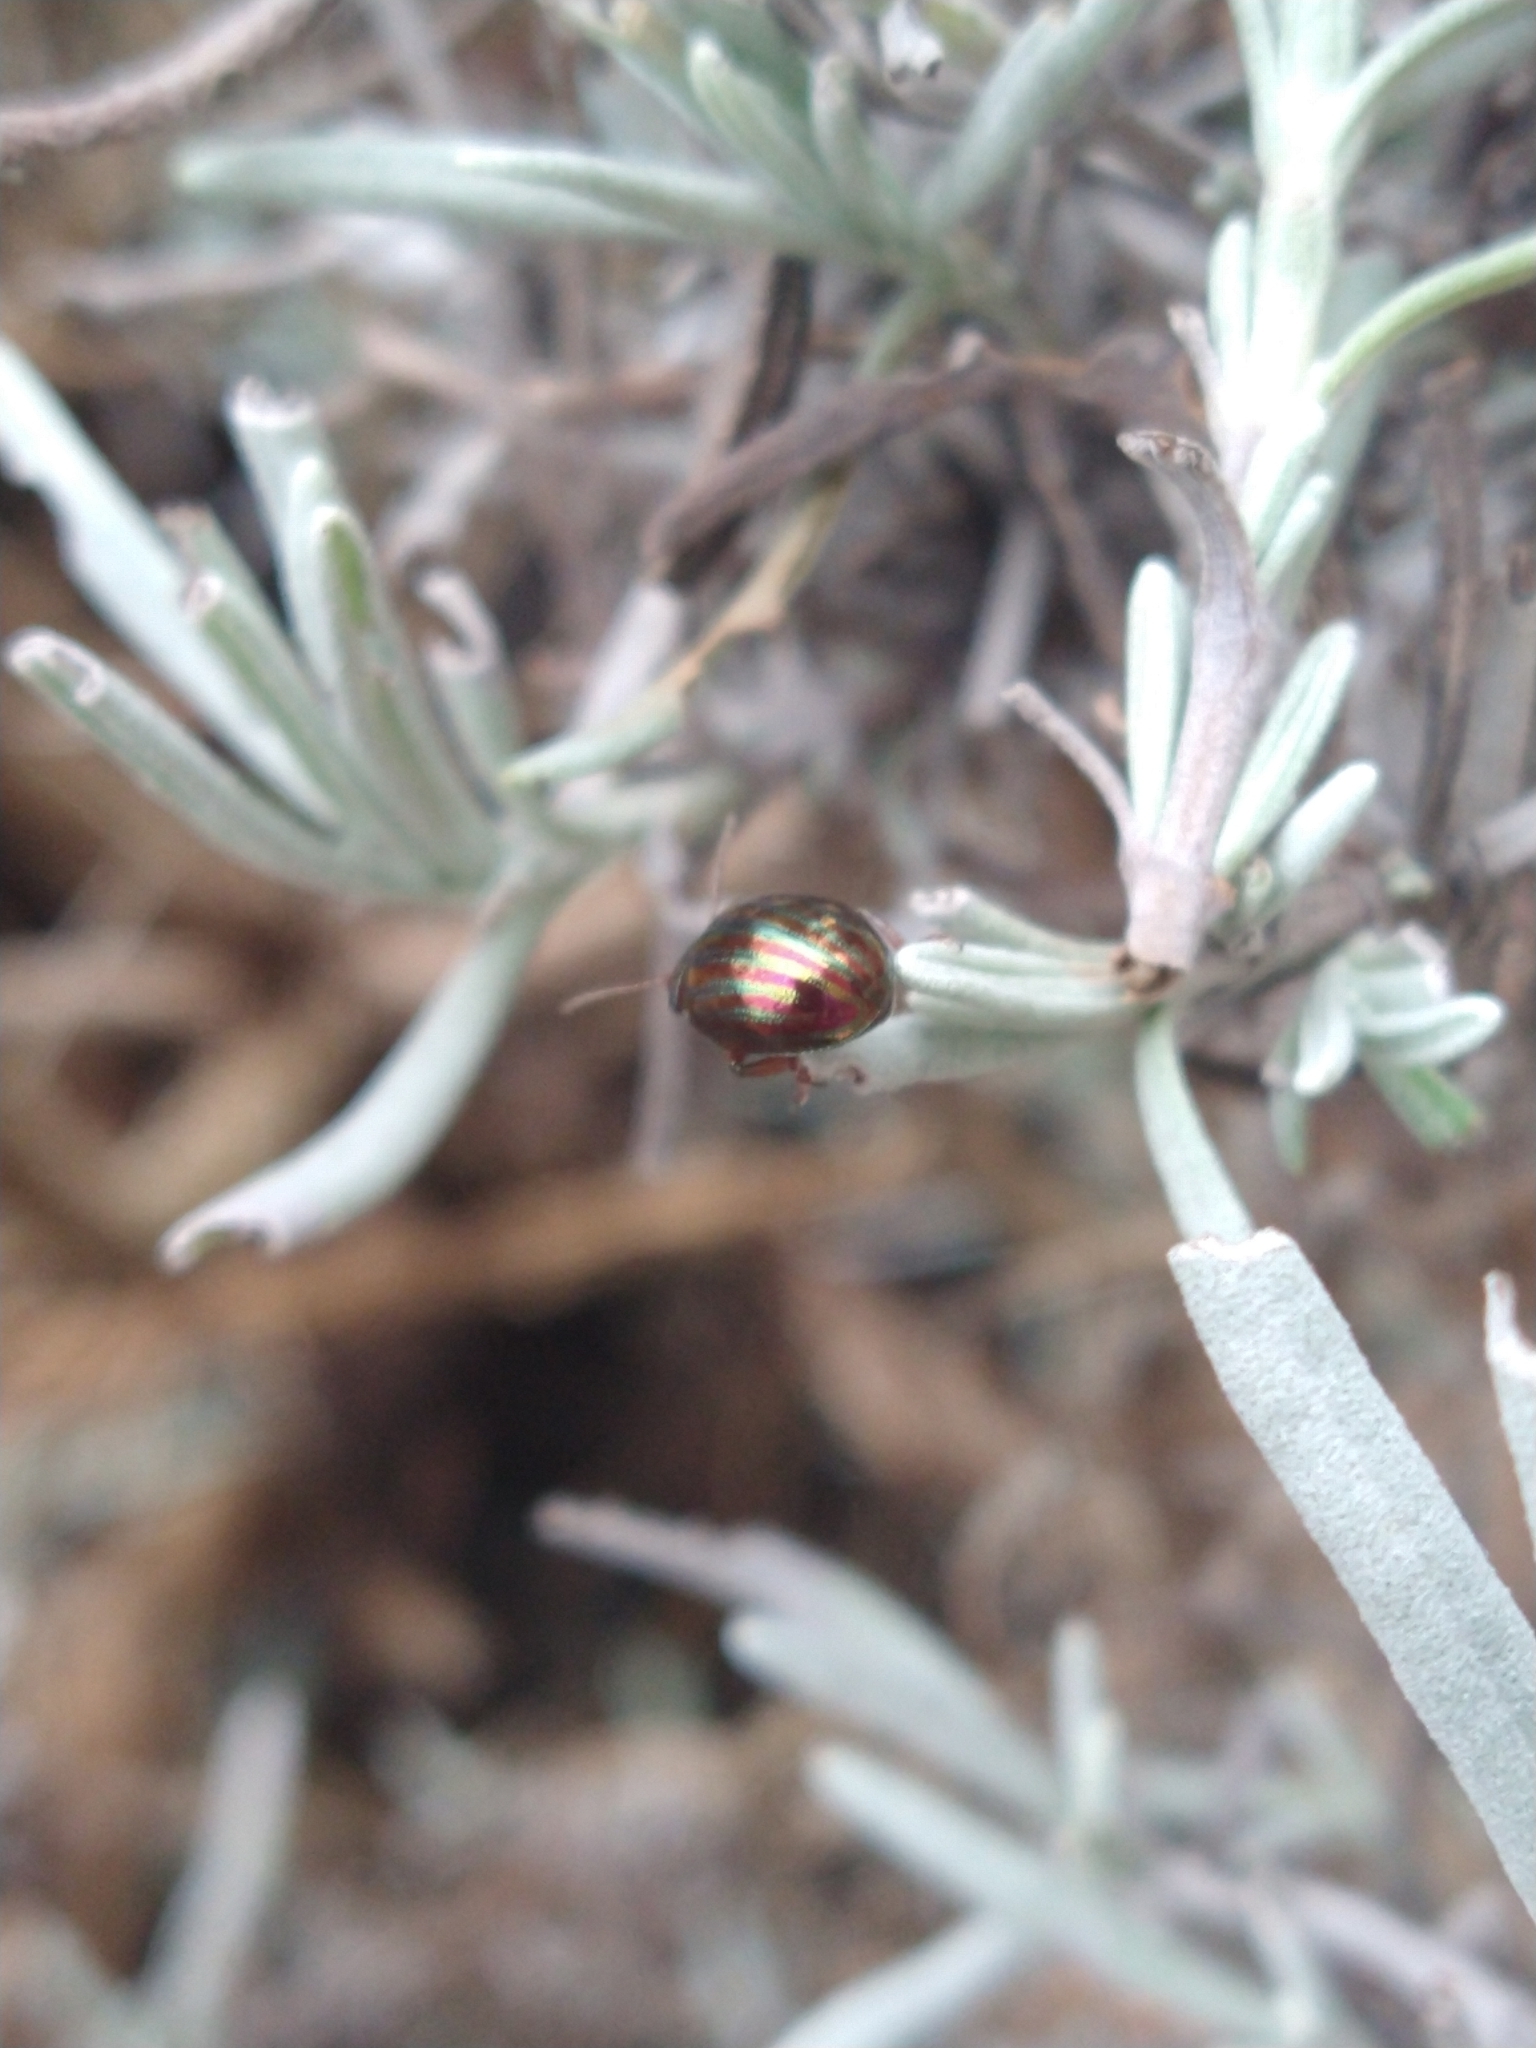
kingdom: Animalia
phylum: Arthropoda
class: Insecta
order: Coleoptera
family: Chrysomelidae
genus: Chrysolina
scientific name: Chrysolina americana
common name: Rosemary beetle
